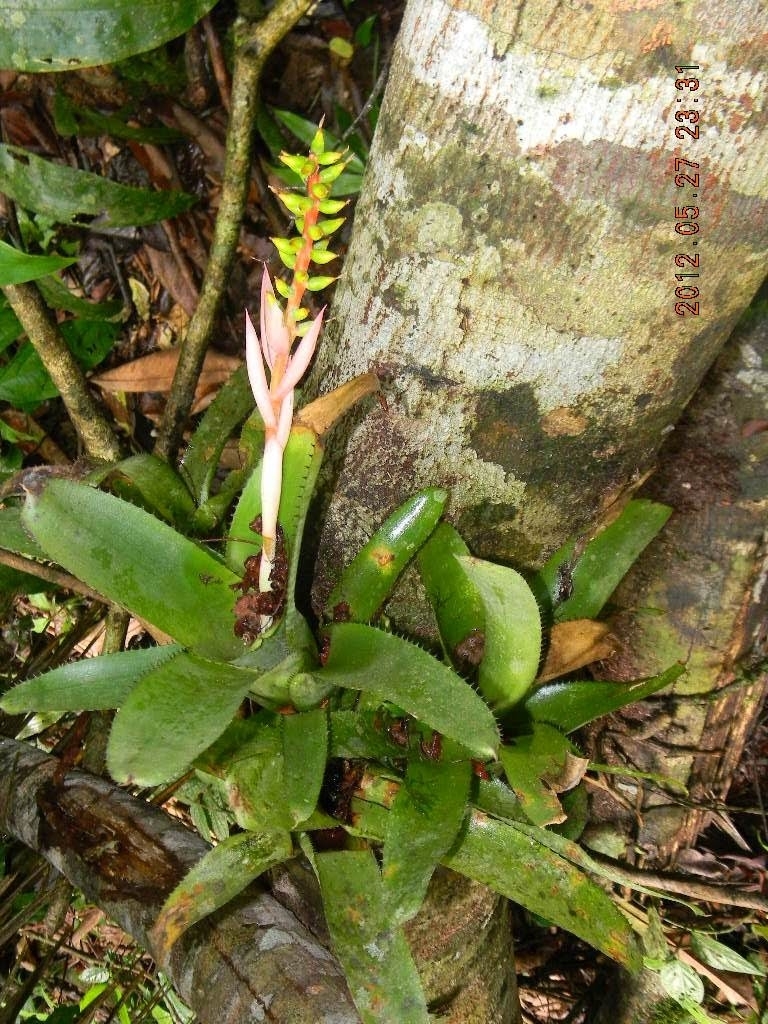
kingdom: Plantae
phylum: Tracheophyta
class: Liliopsida
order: Poales
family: Bromeliaceae
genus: Aechmea
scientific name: Aechmea nudicaulis
